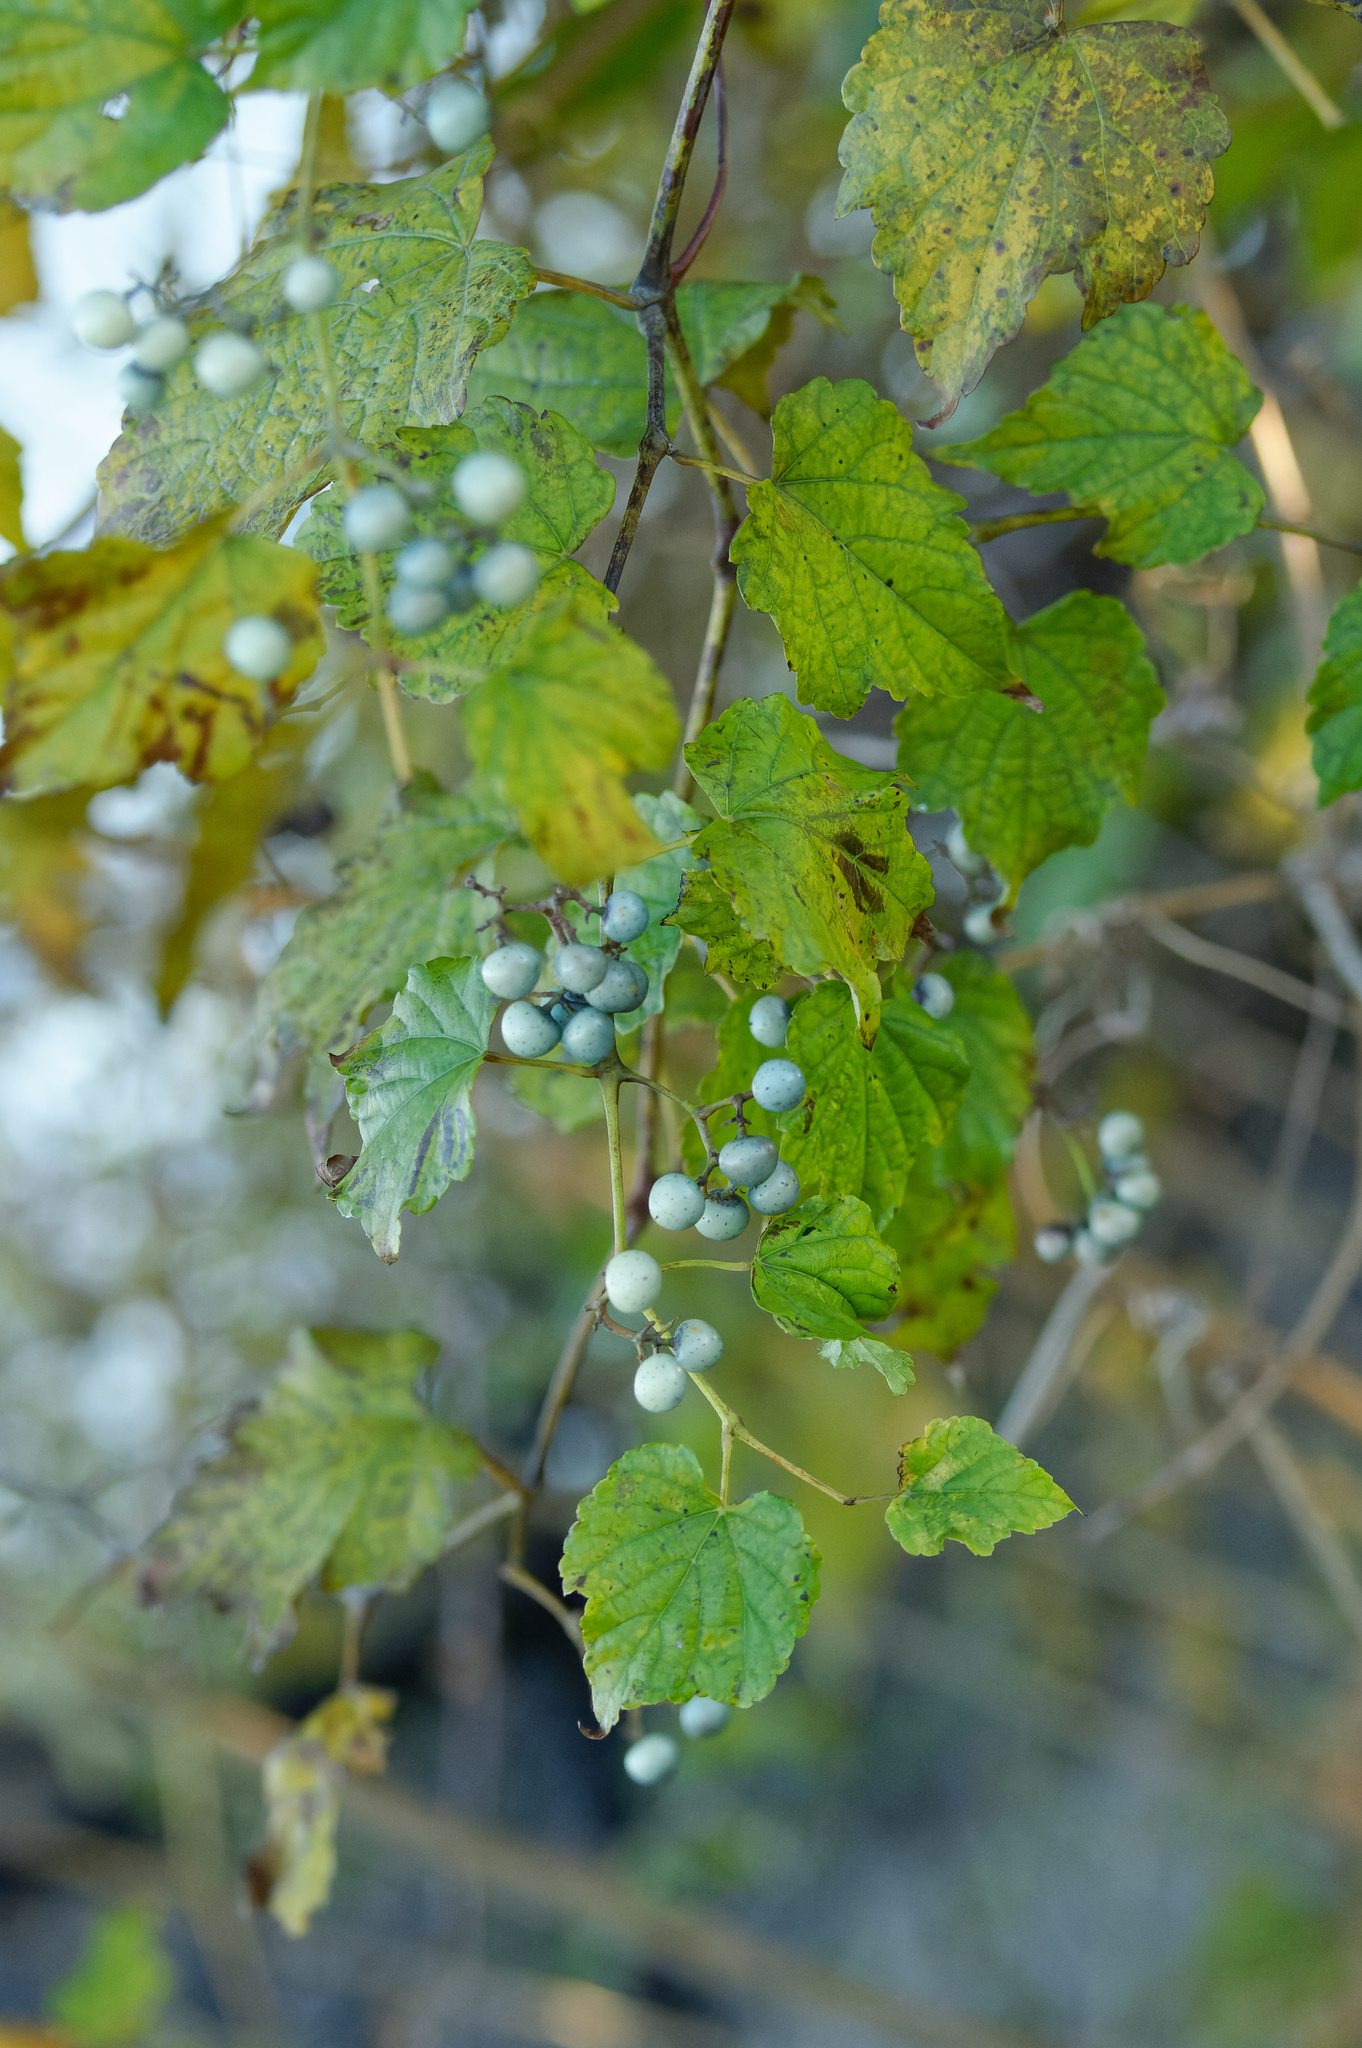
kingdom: Plantae
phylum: Tracheophyta
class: Magnoliopsida
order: Vitales
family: Vitaceae
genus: Ampelopsis
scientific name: Ampelopsis glandulosa
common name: Amur peppervine
